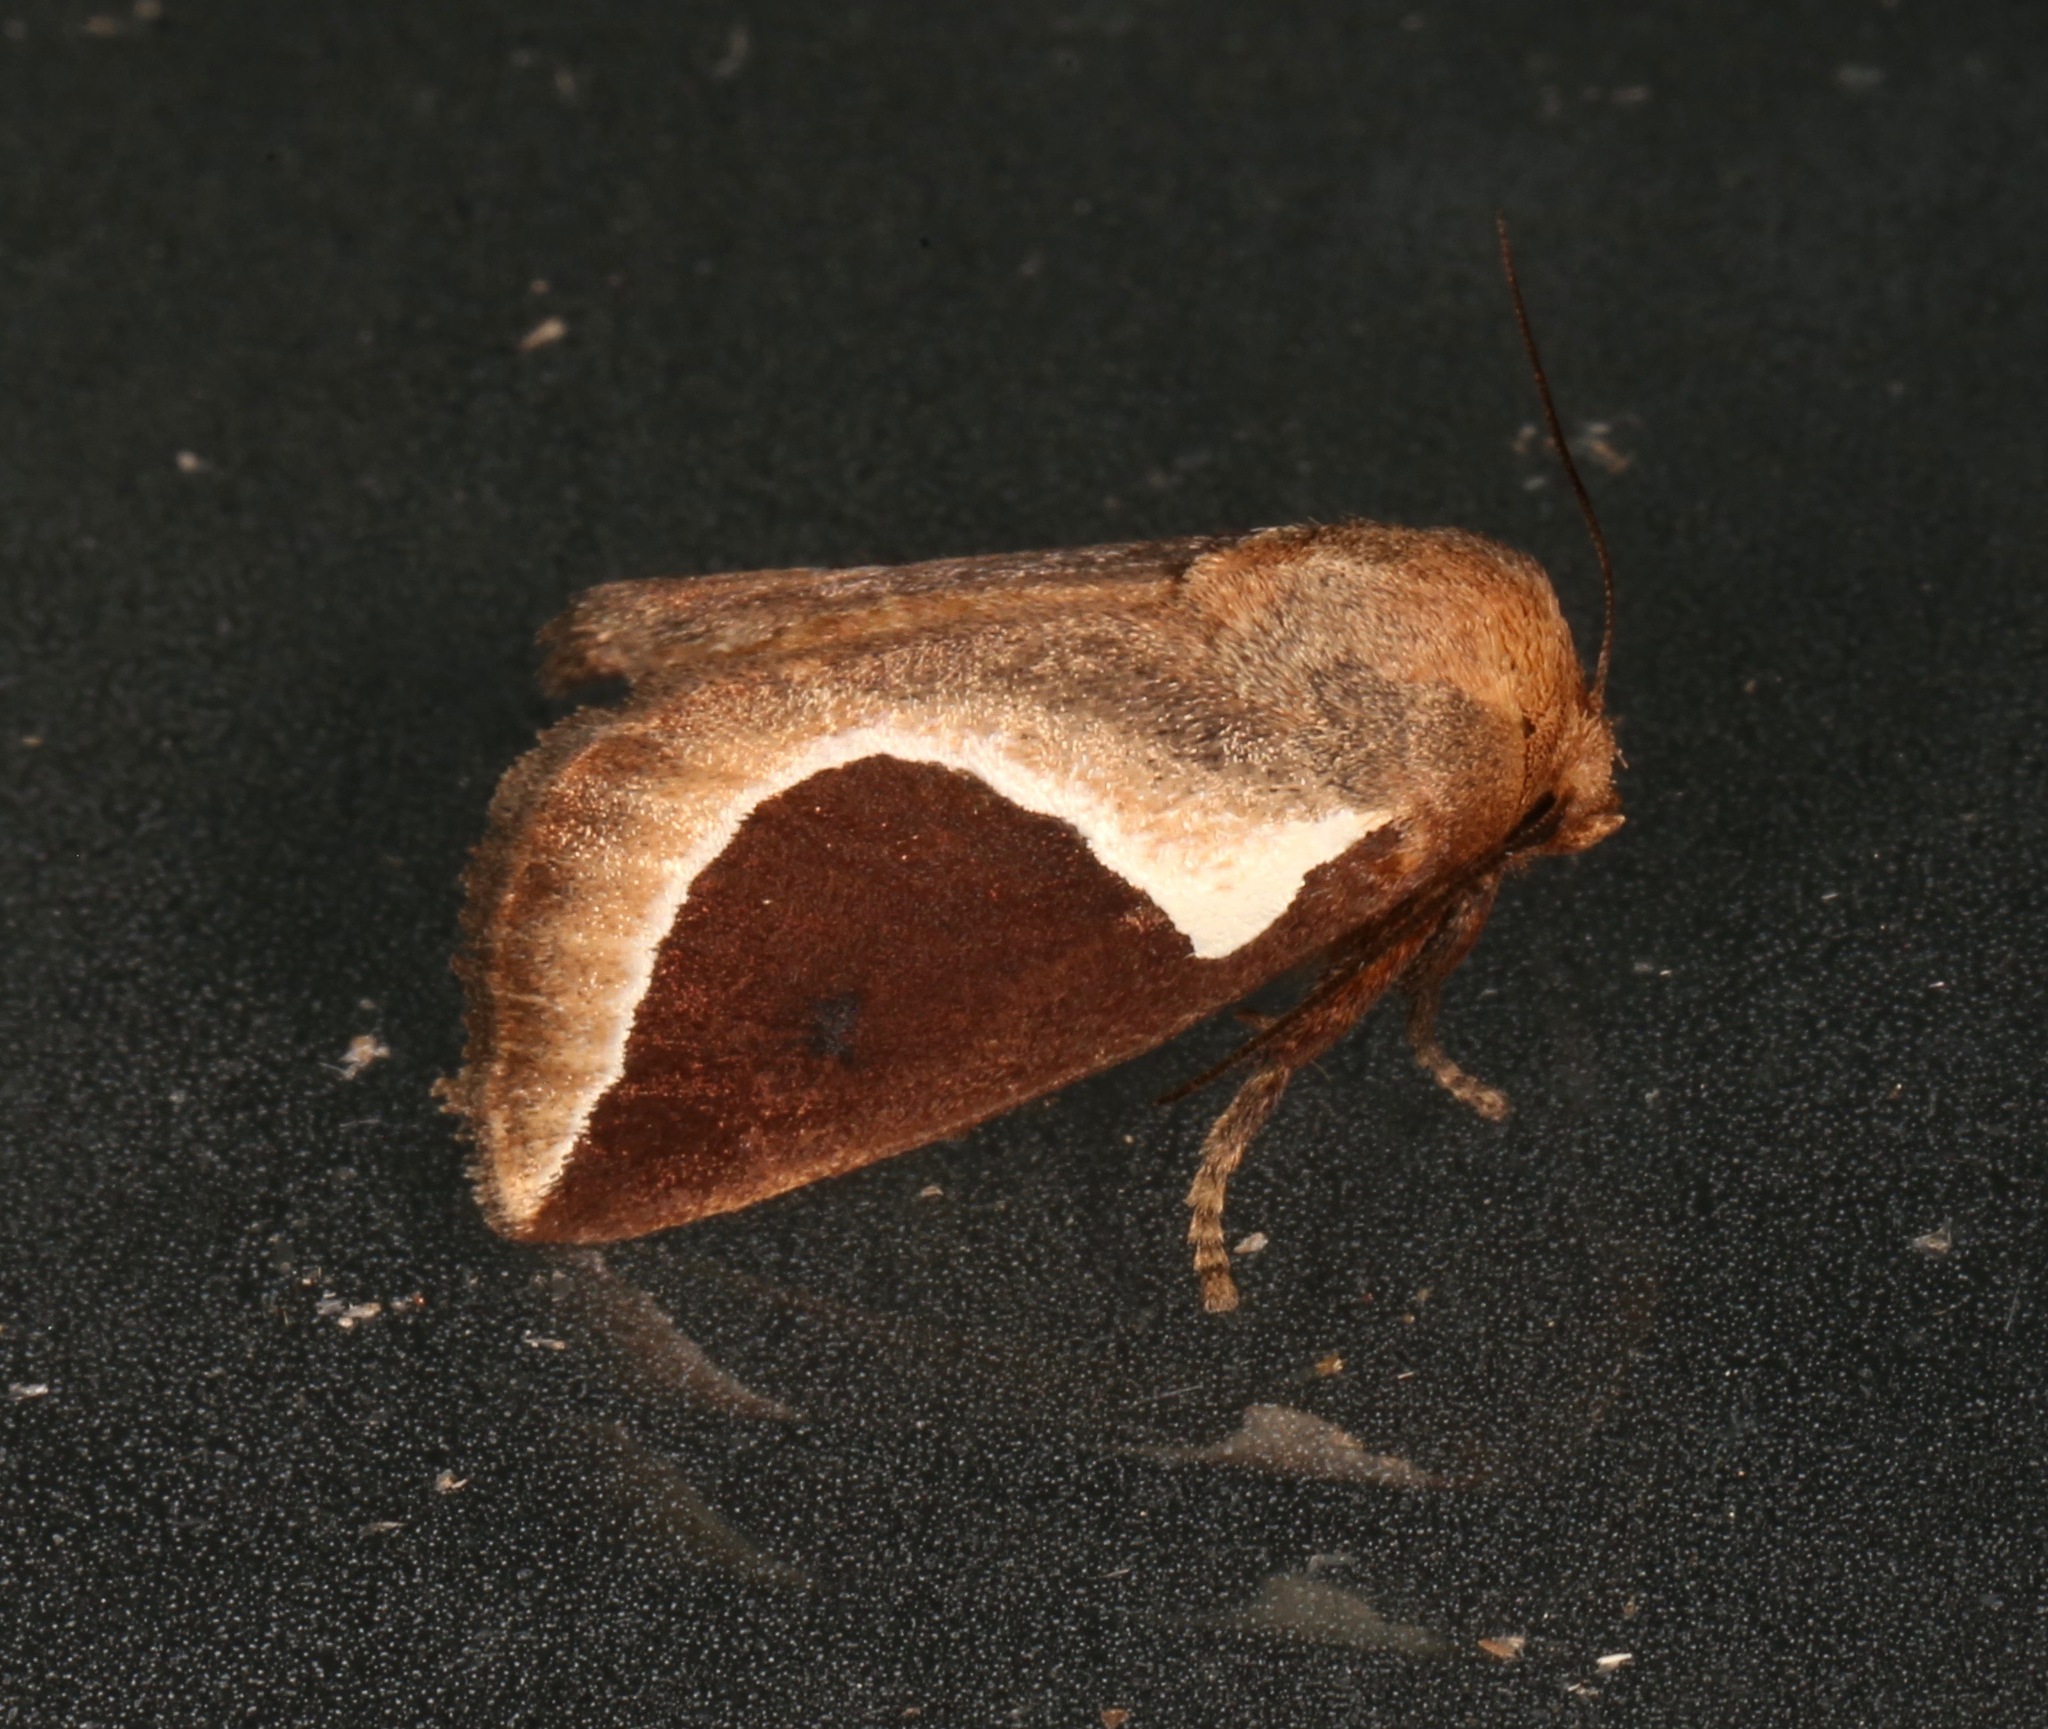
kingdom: Animalia
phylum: Arthropoda
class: Insecta
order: Lepidoptera
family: Limacodidae
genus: Prolimacodes
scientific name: Prolimacodes badia
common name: Skiff moth
